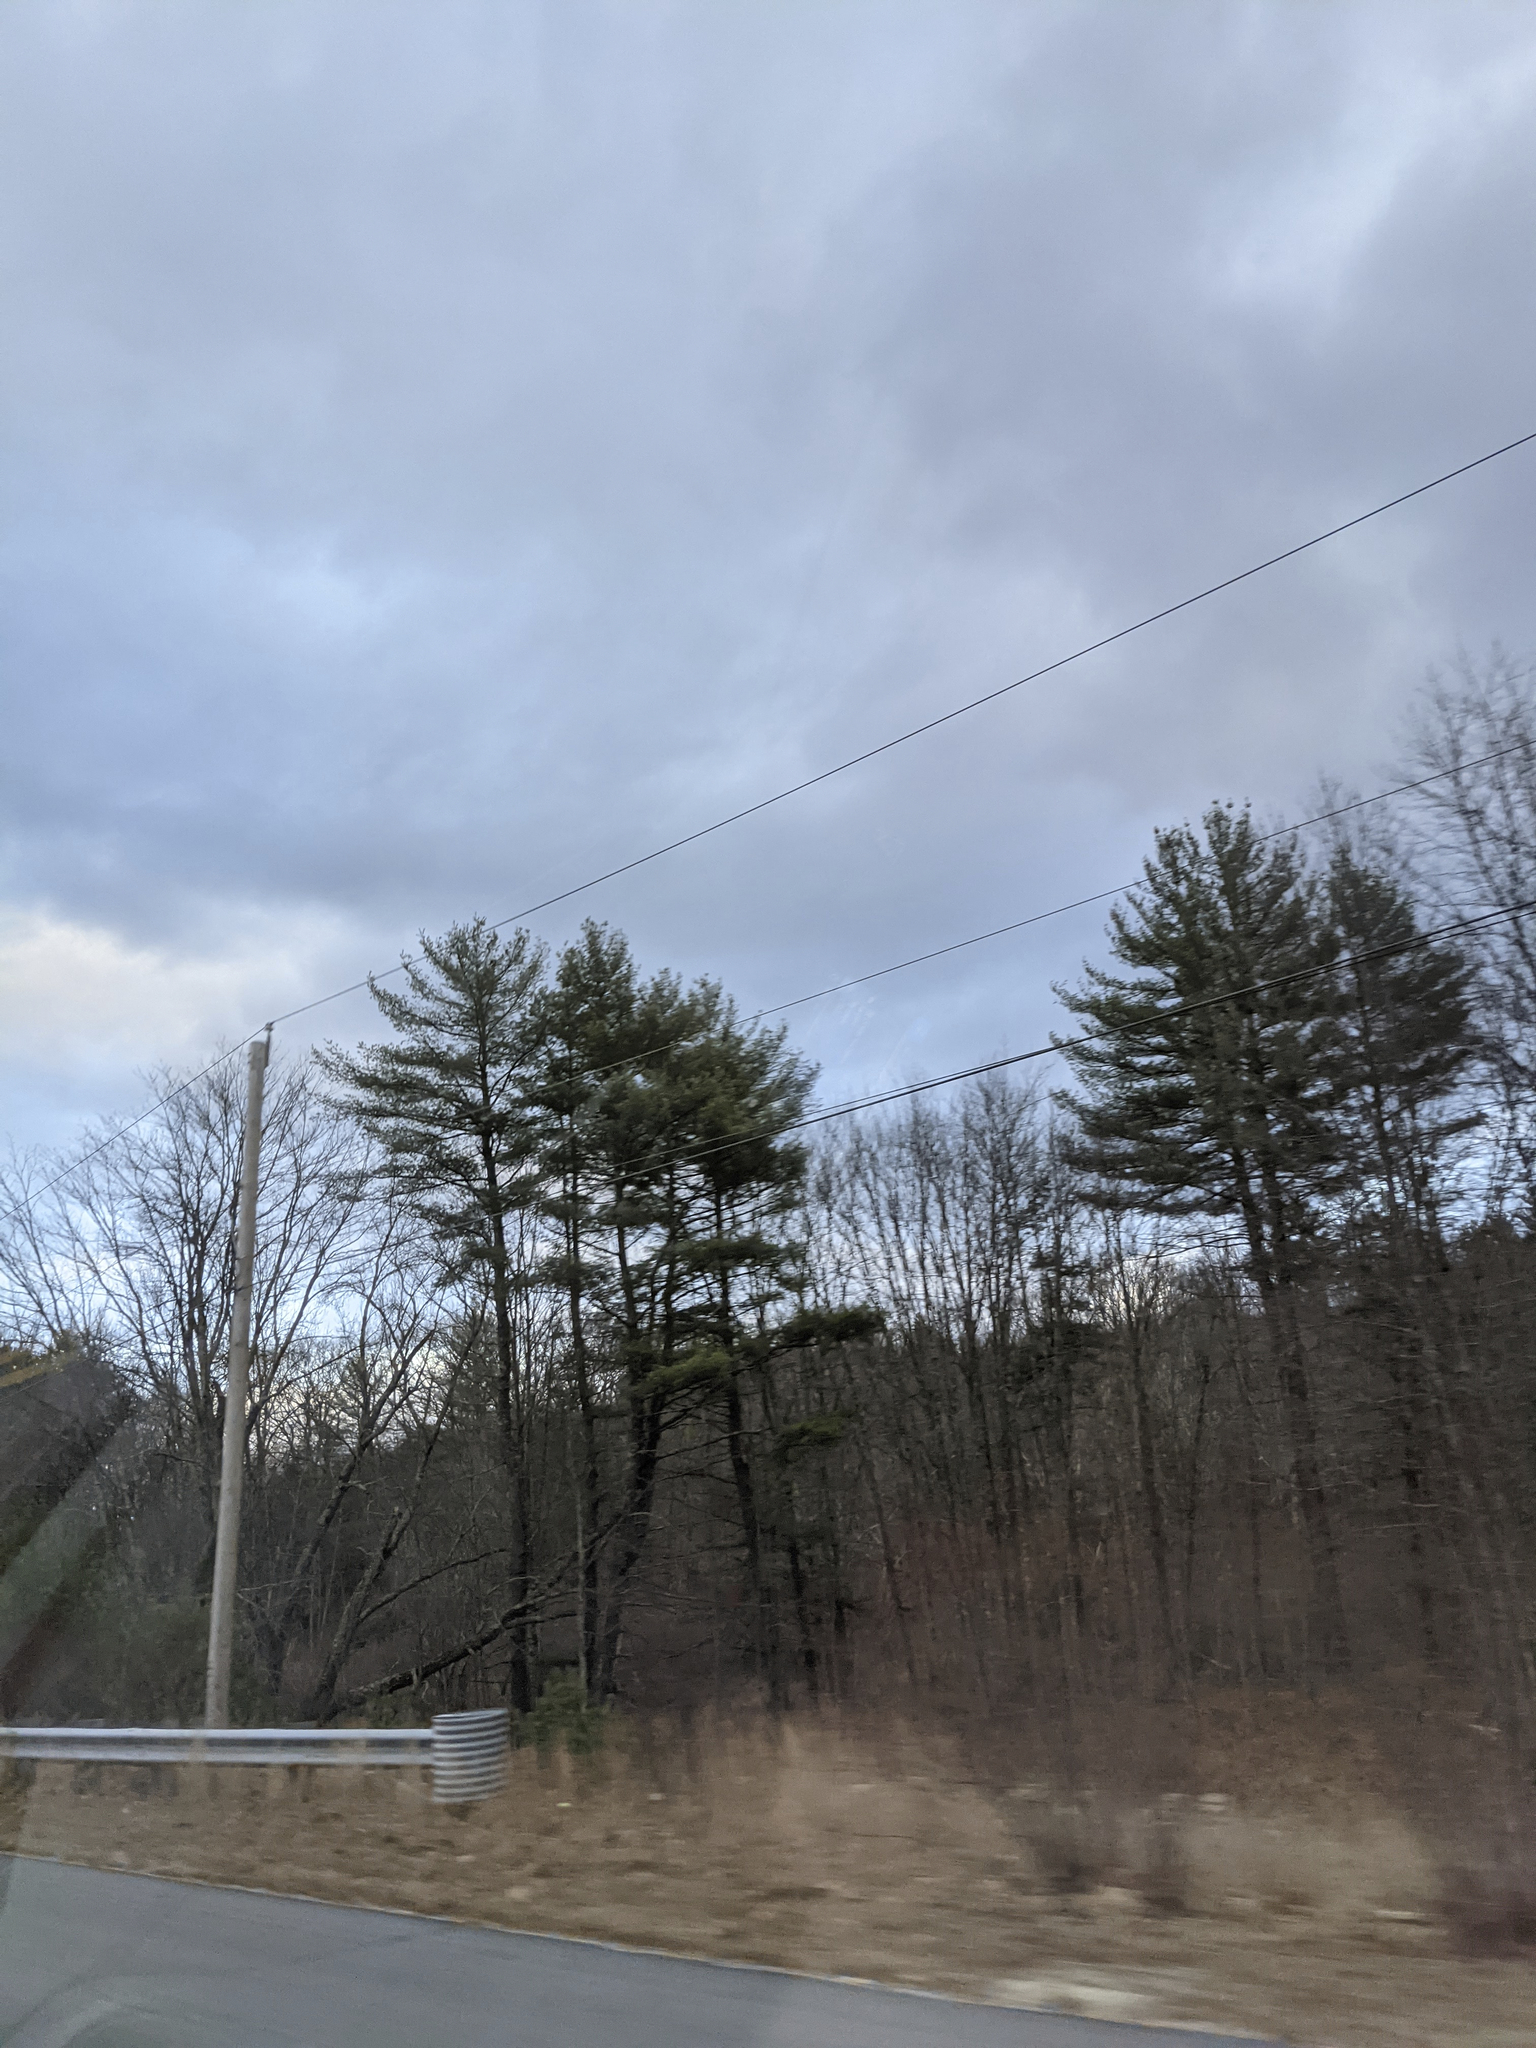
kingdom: Plantae
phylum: Tracheophyta
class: Pinopsida
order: Pinales
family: Pinaceae
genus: Pinus
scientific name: Pinus strobus
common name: Weymouth pine
